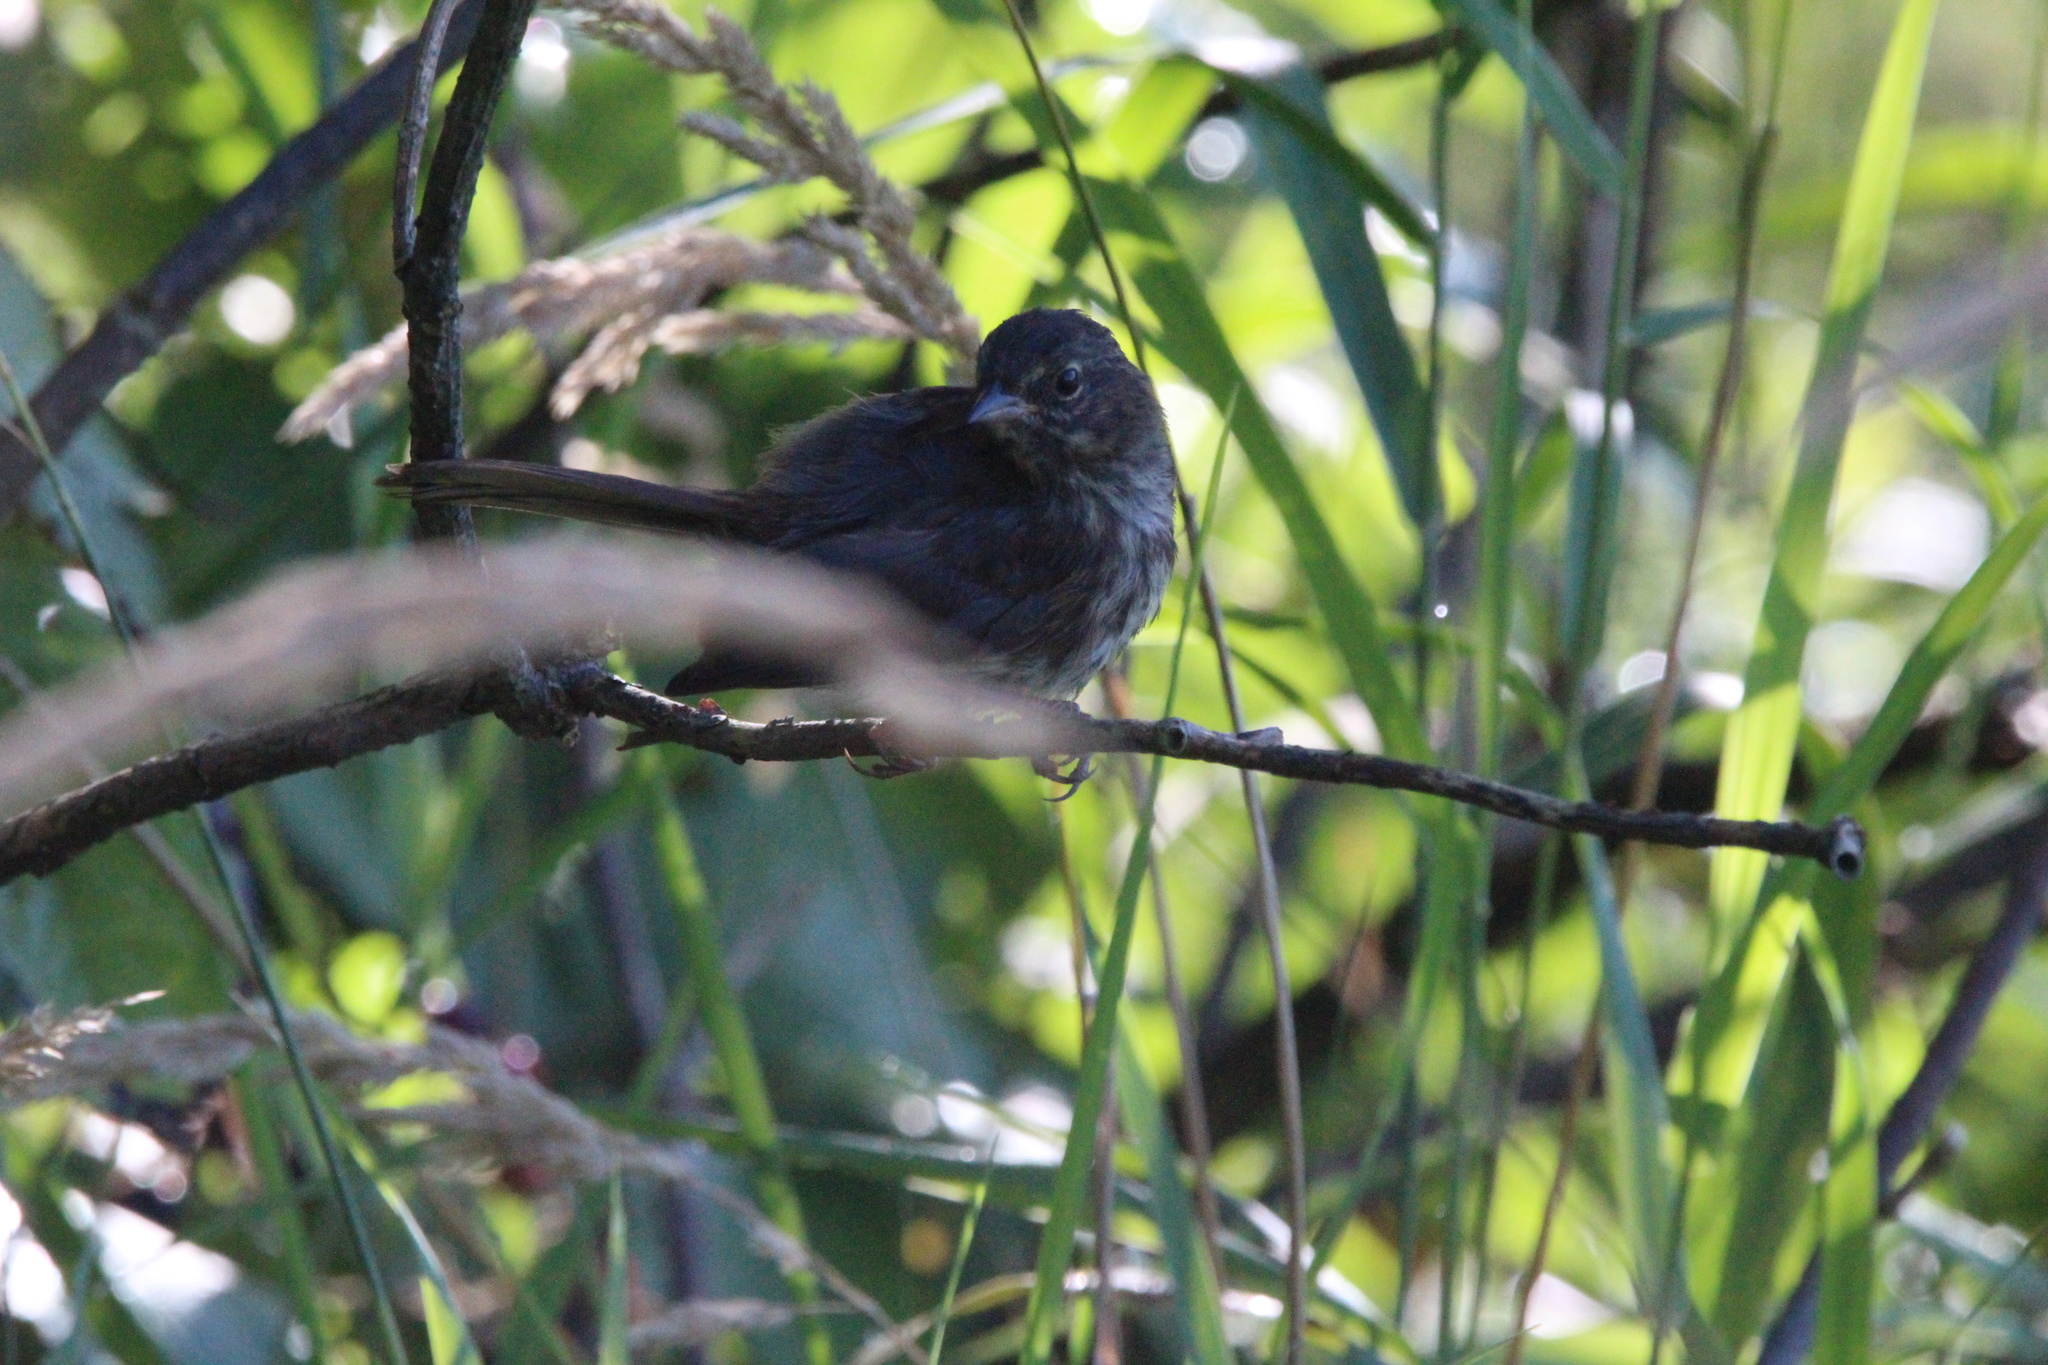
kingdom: Animalia
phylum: Chordata
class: Aves
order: Passeriformes
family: Passerellidae
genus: Melospiza
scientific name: Melospiza melodia
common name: Song sparrow
